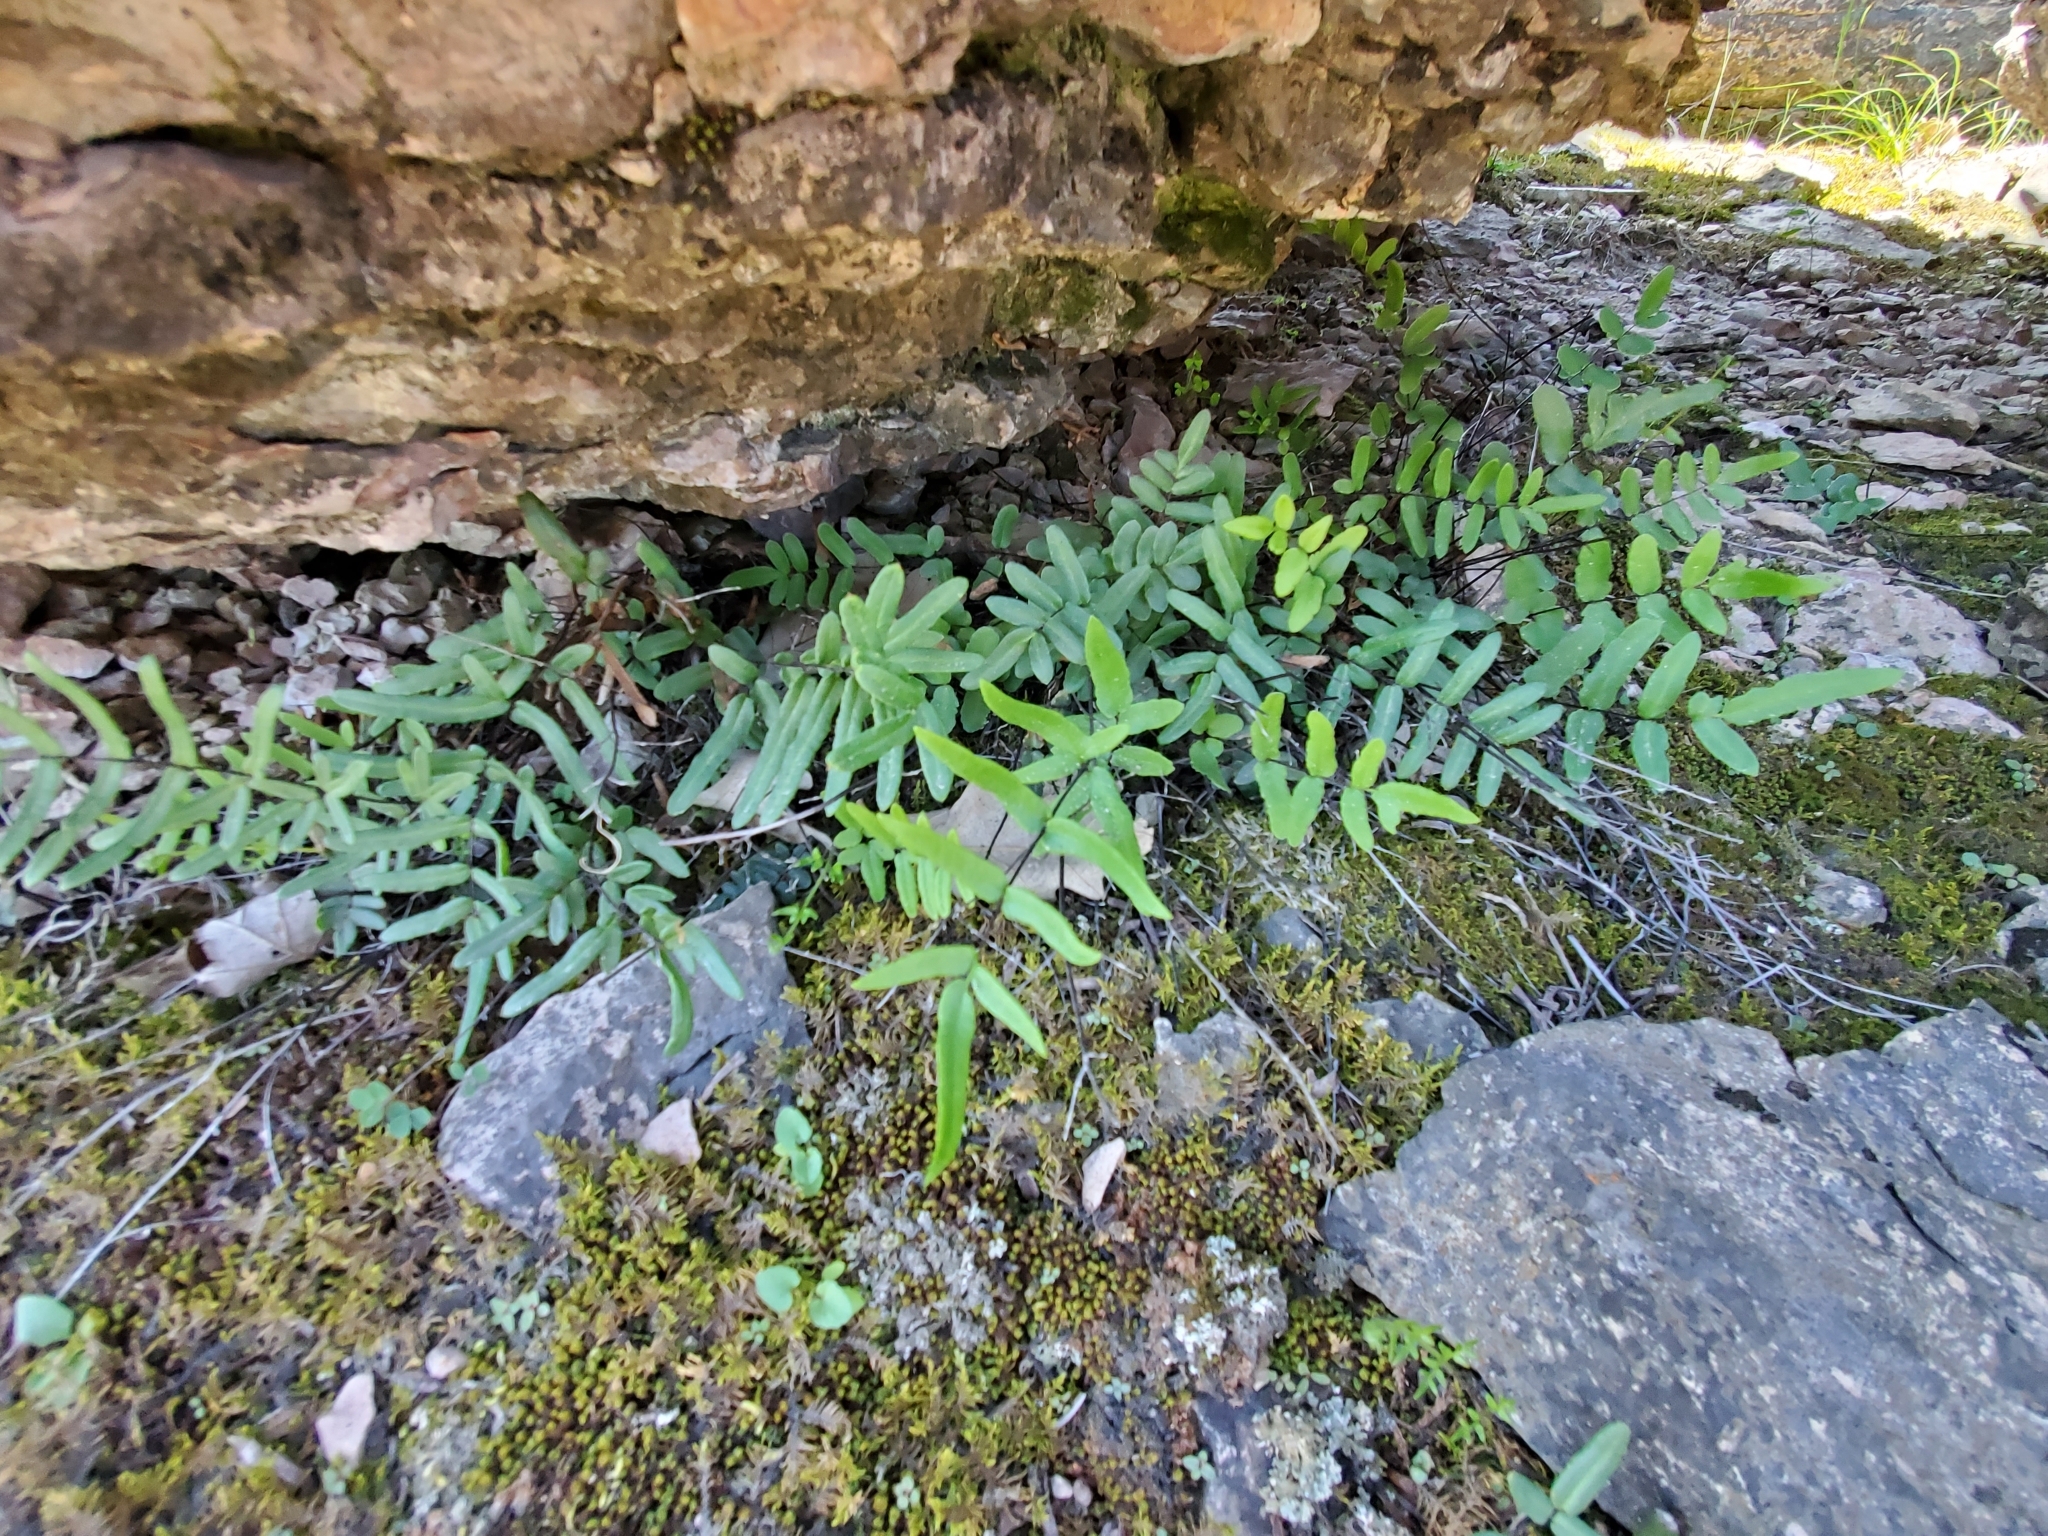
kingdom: Plantae
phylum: Tracheophyta
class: Polypodiopsida
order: Polypodiales
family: Pteridaceae
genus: Pellaea
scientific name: Pellaea gastonyi
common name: Gastony's cliffbrake
